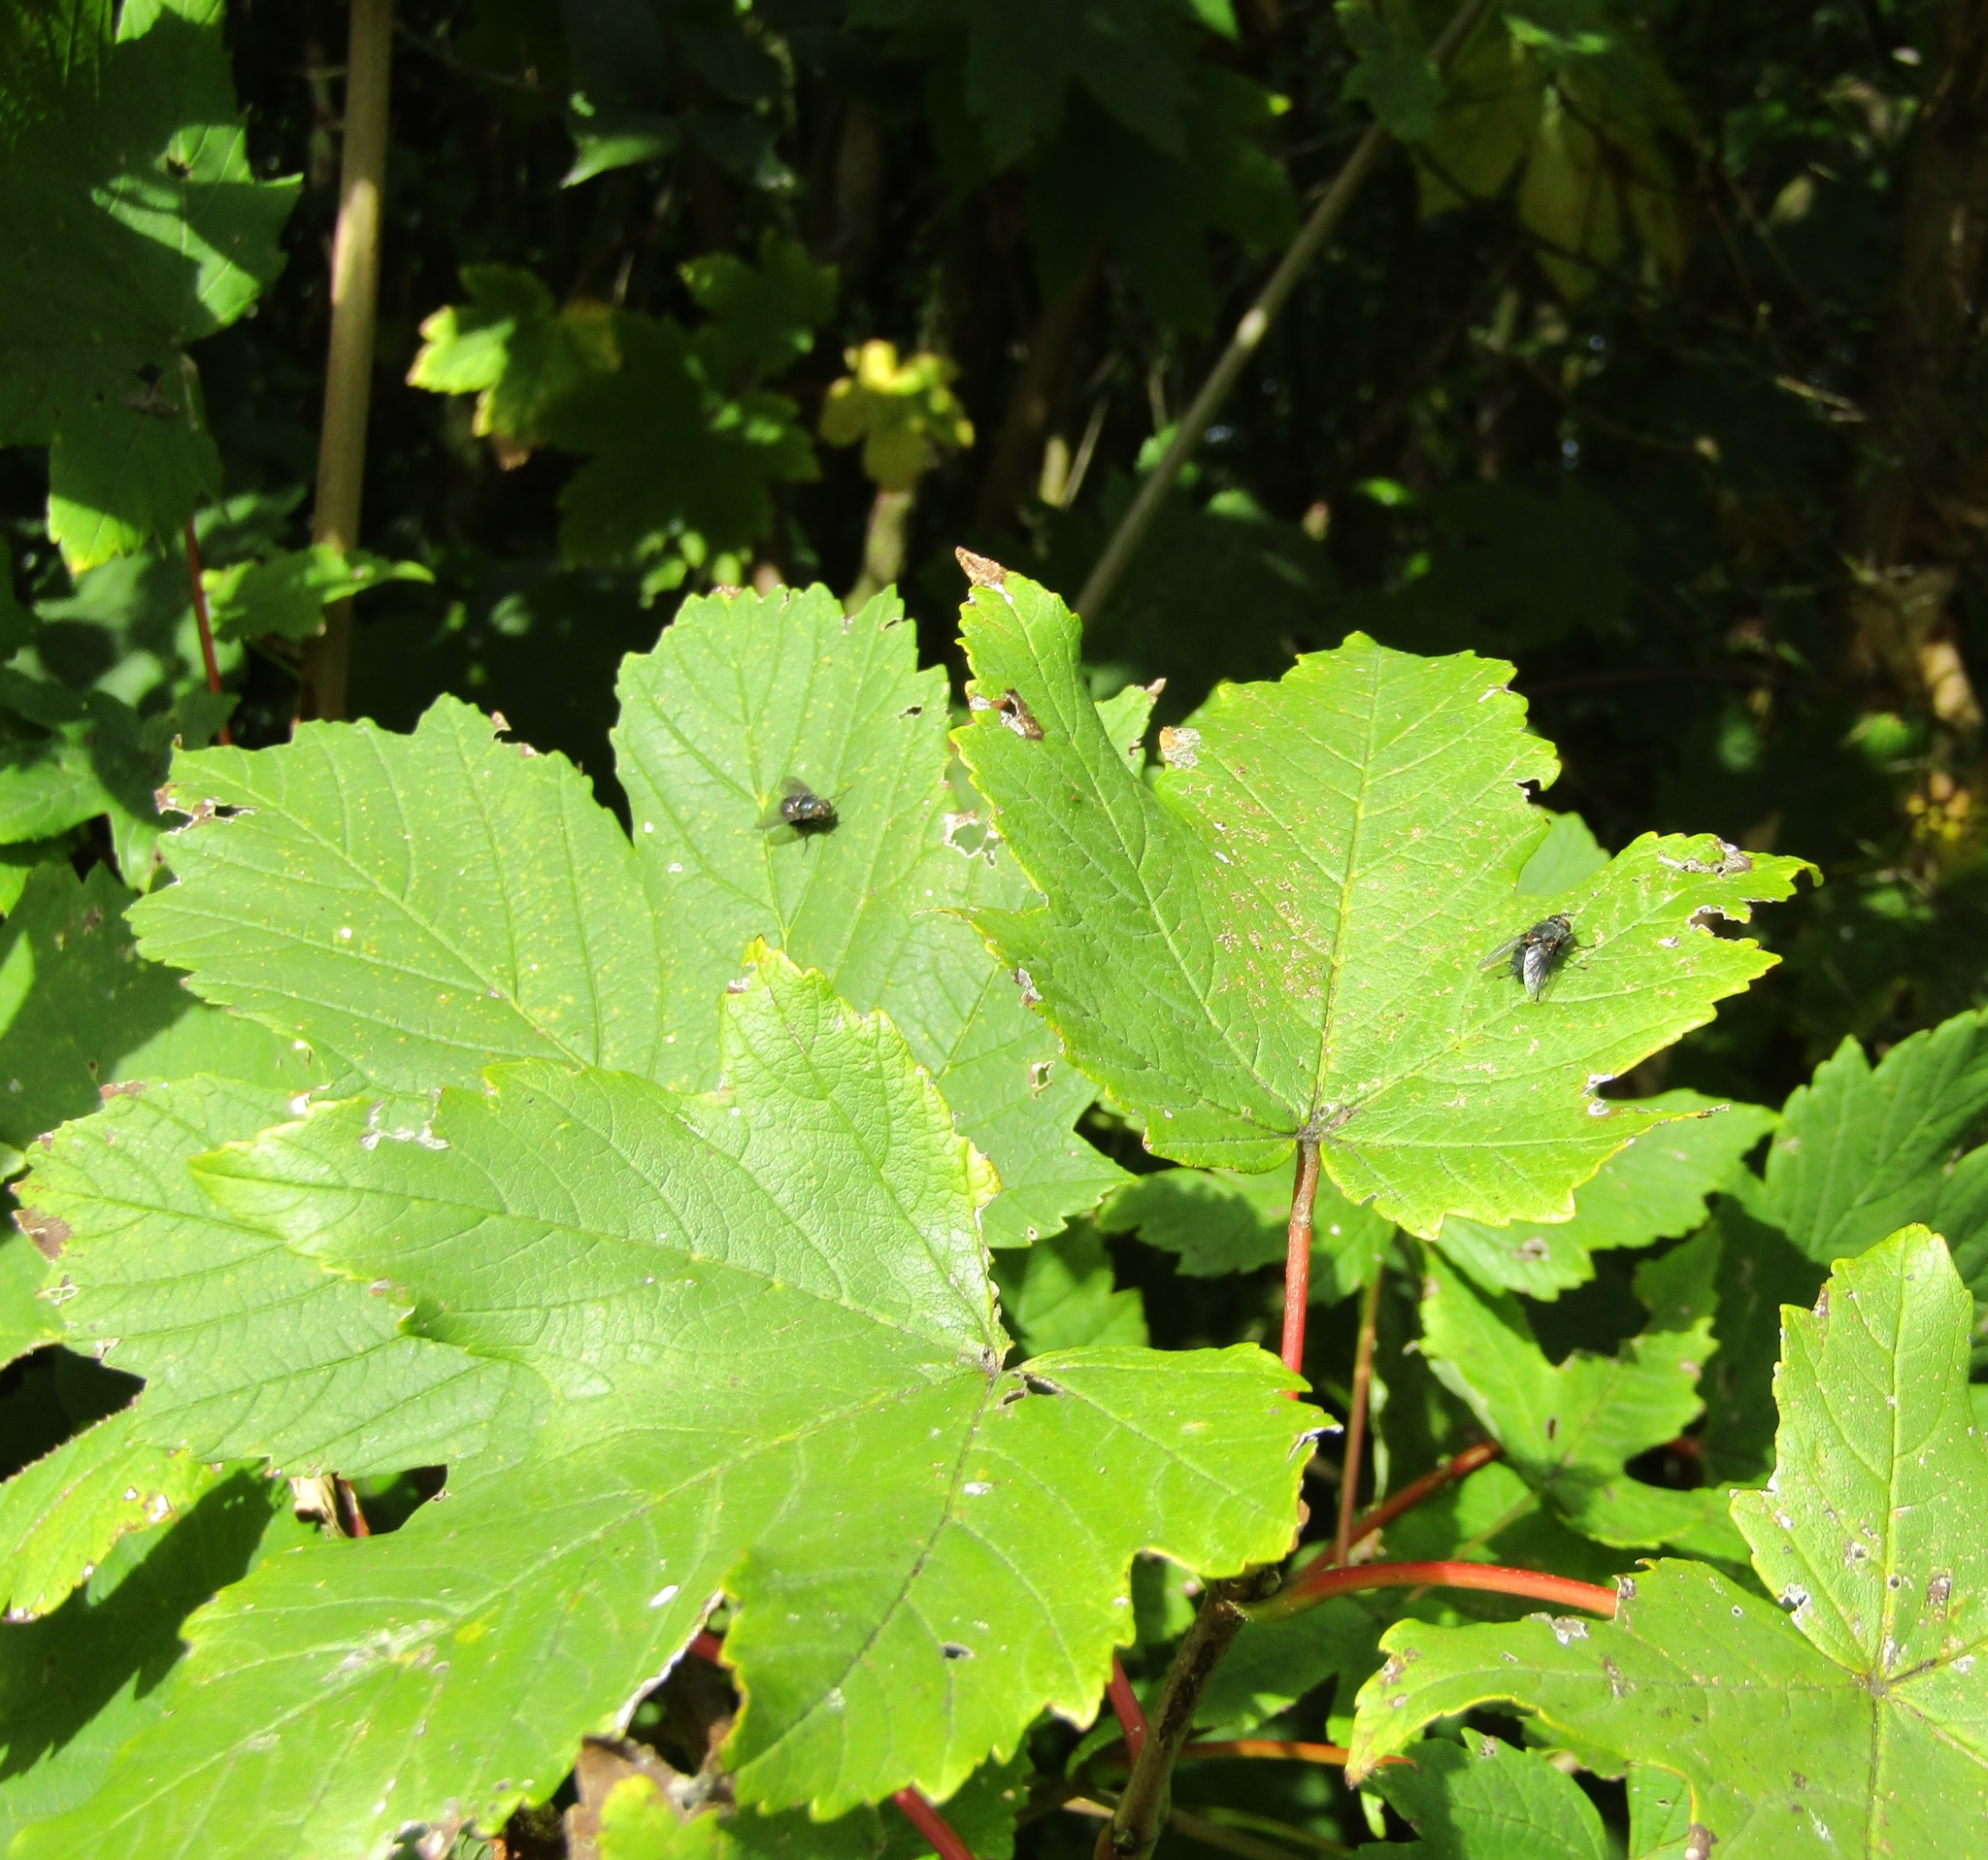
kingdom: Plantae
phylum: Tracheophyta
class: Magnoliopsida
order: Sapindales
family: Sapindaceae
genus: Acer
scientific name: Acer pseudoplatanus
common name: Sycamore
